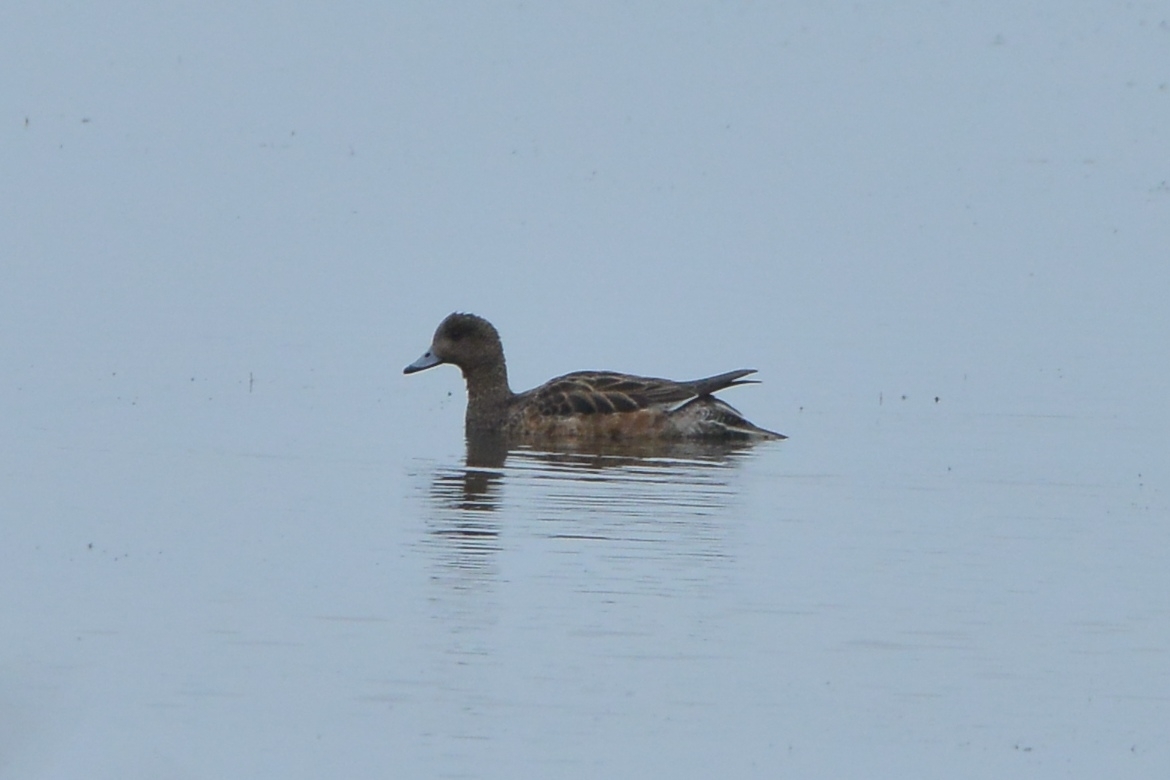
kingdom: Animalia
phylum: Chordata
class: Aves
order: Anseriformes
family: Anatidae
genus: Mareca
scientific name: Mareca penelope
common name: Eurasian wigeon
